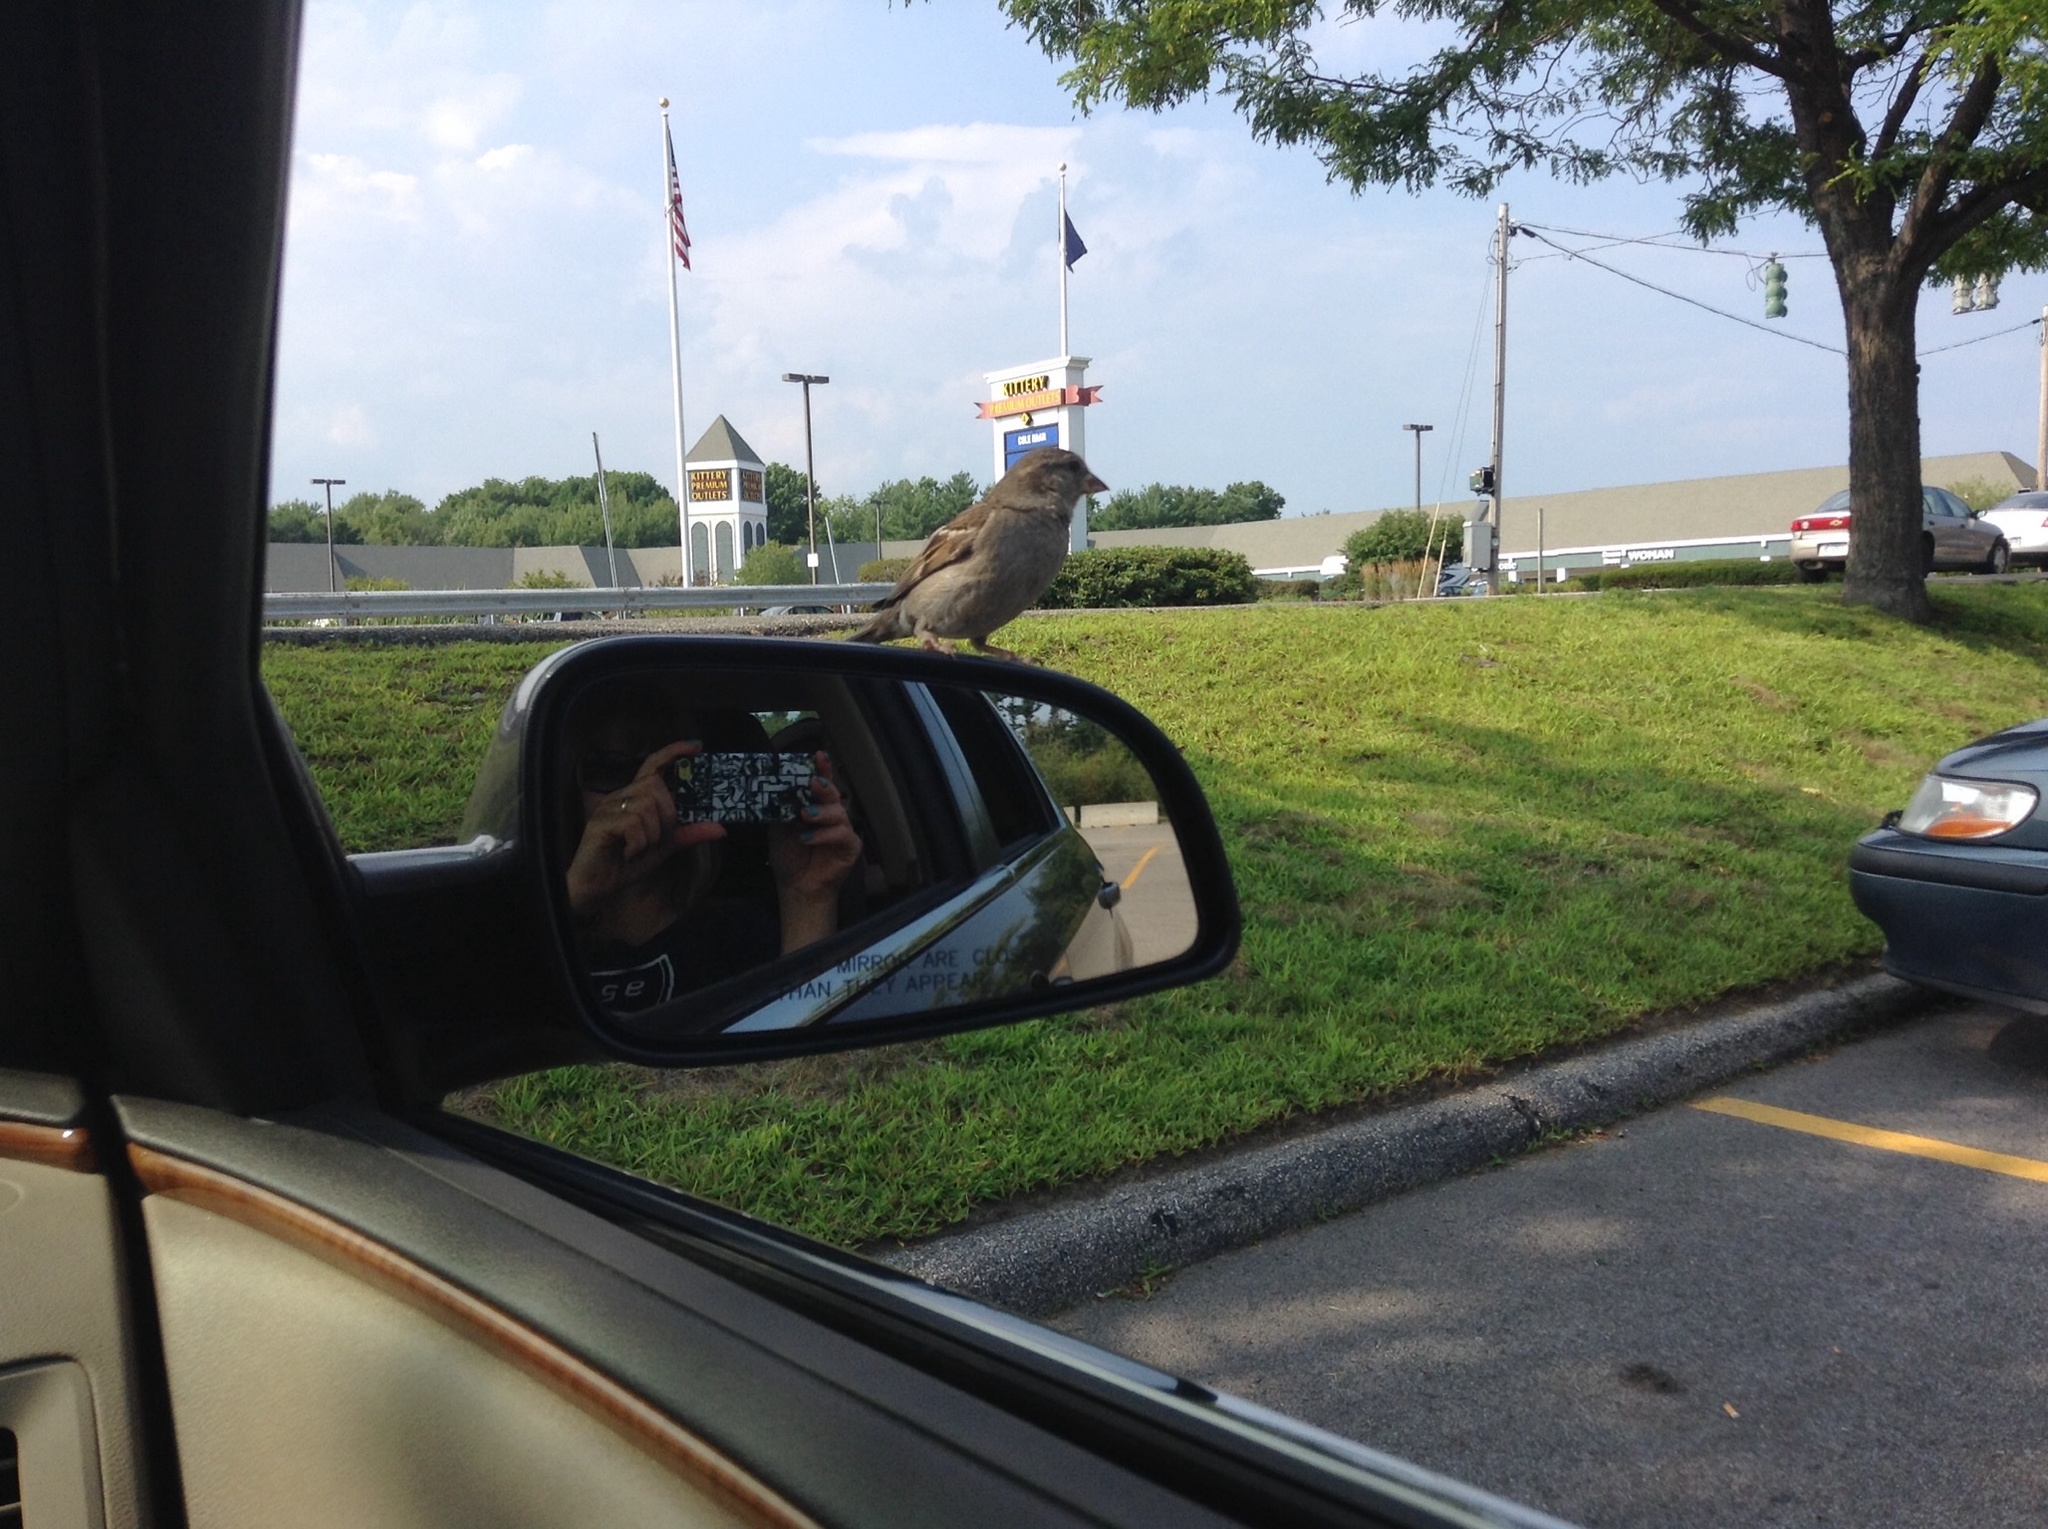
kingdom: Animalia
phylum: Chordata
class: Aves
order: Passeriformes
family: Passeridae
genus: Passer
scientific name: Passer domesticus
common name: House sparrow
